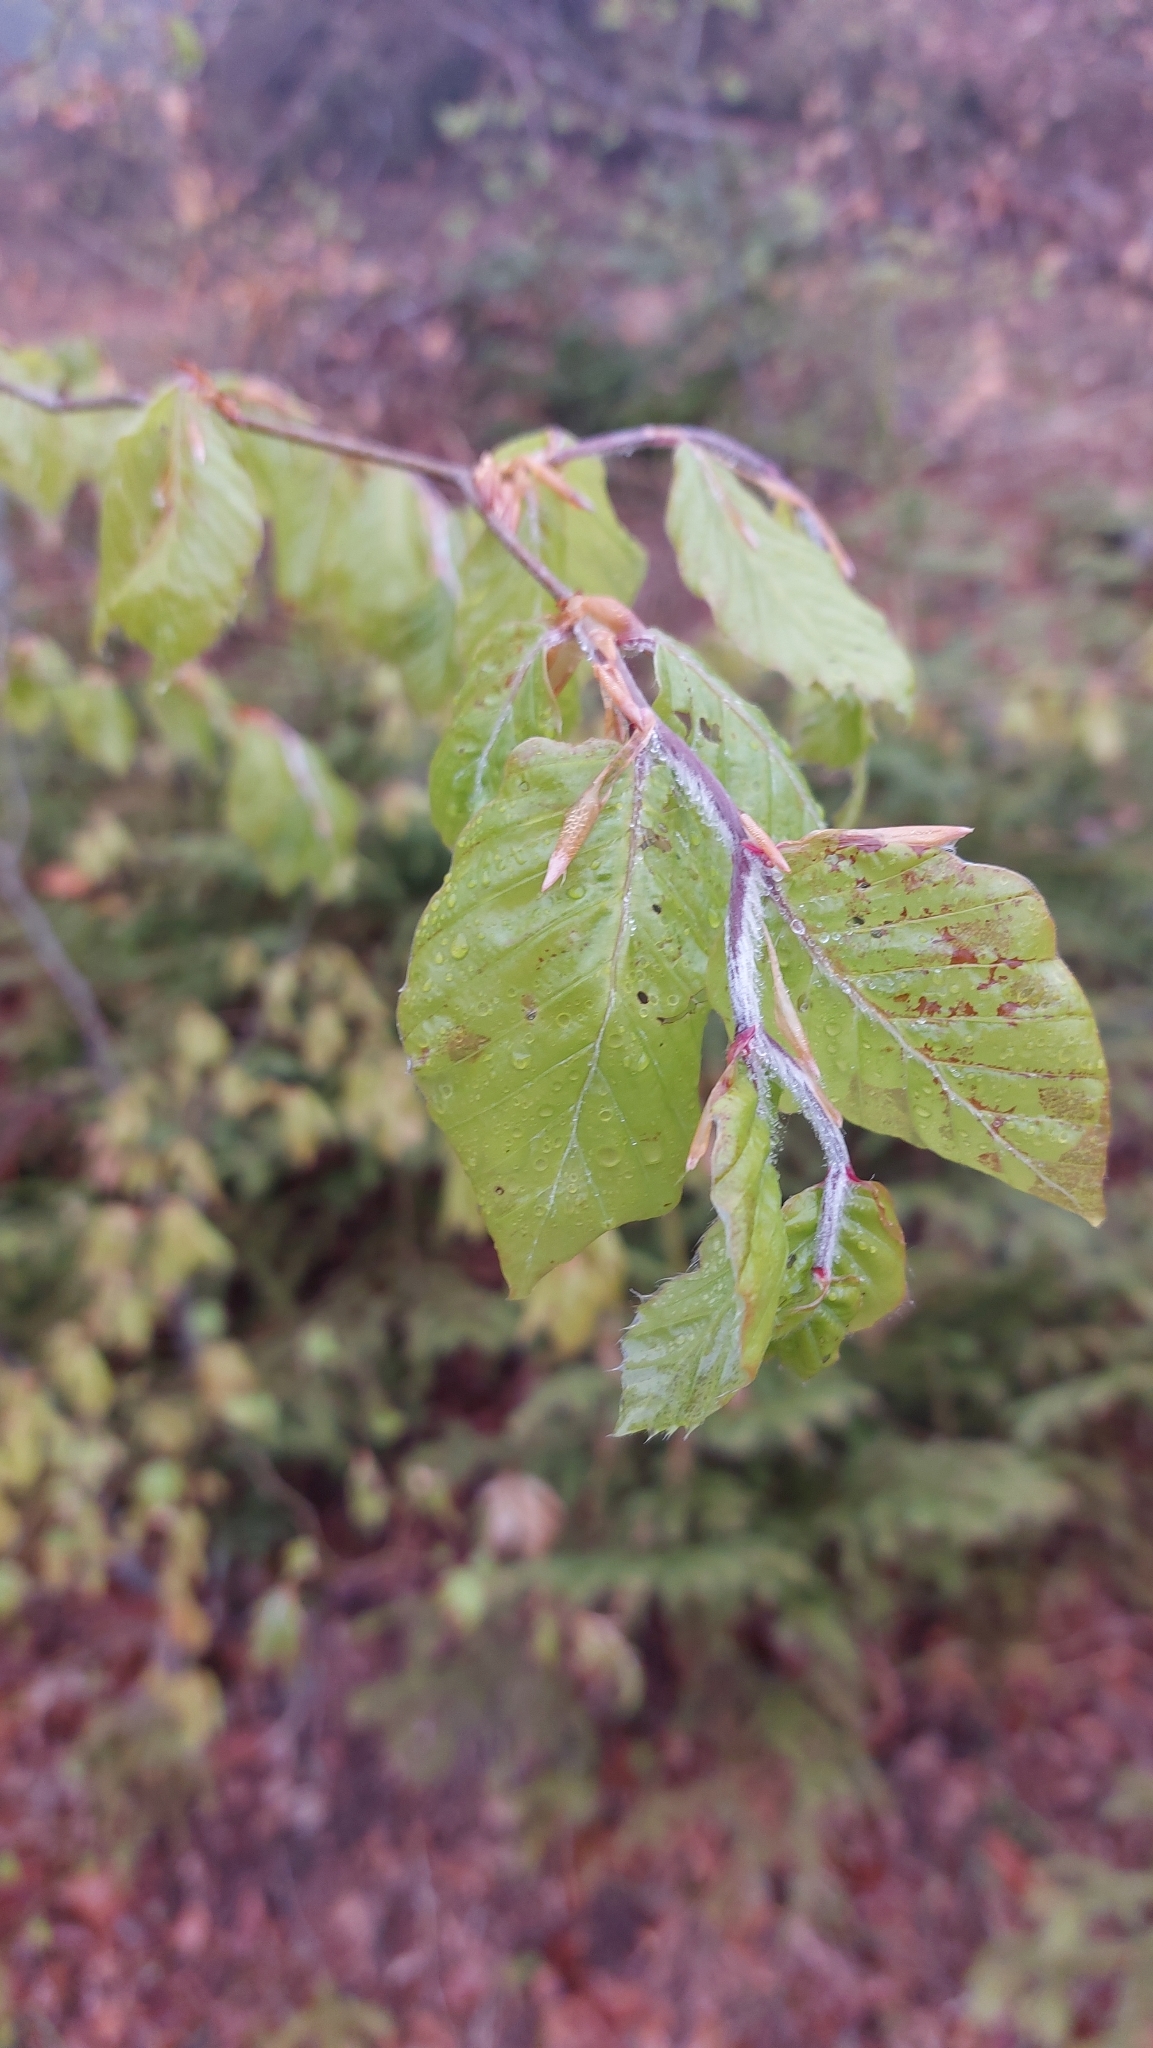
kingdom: Plantae
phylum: Tracheophyta
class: Magnoliopsida
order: Fagales
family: Fagaceae
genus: Fagus
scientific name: Fagus sylvatica
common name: Beech
